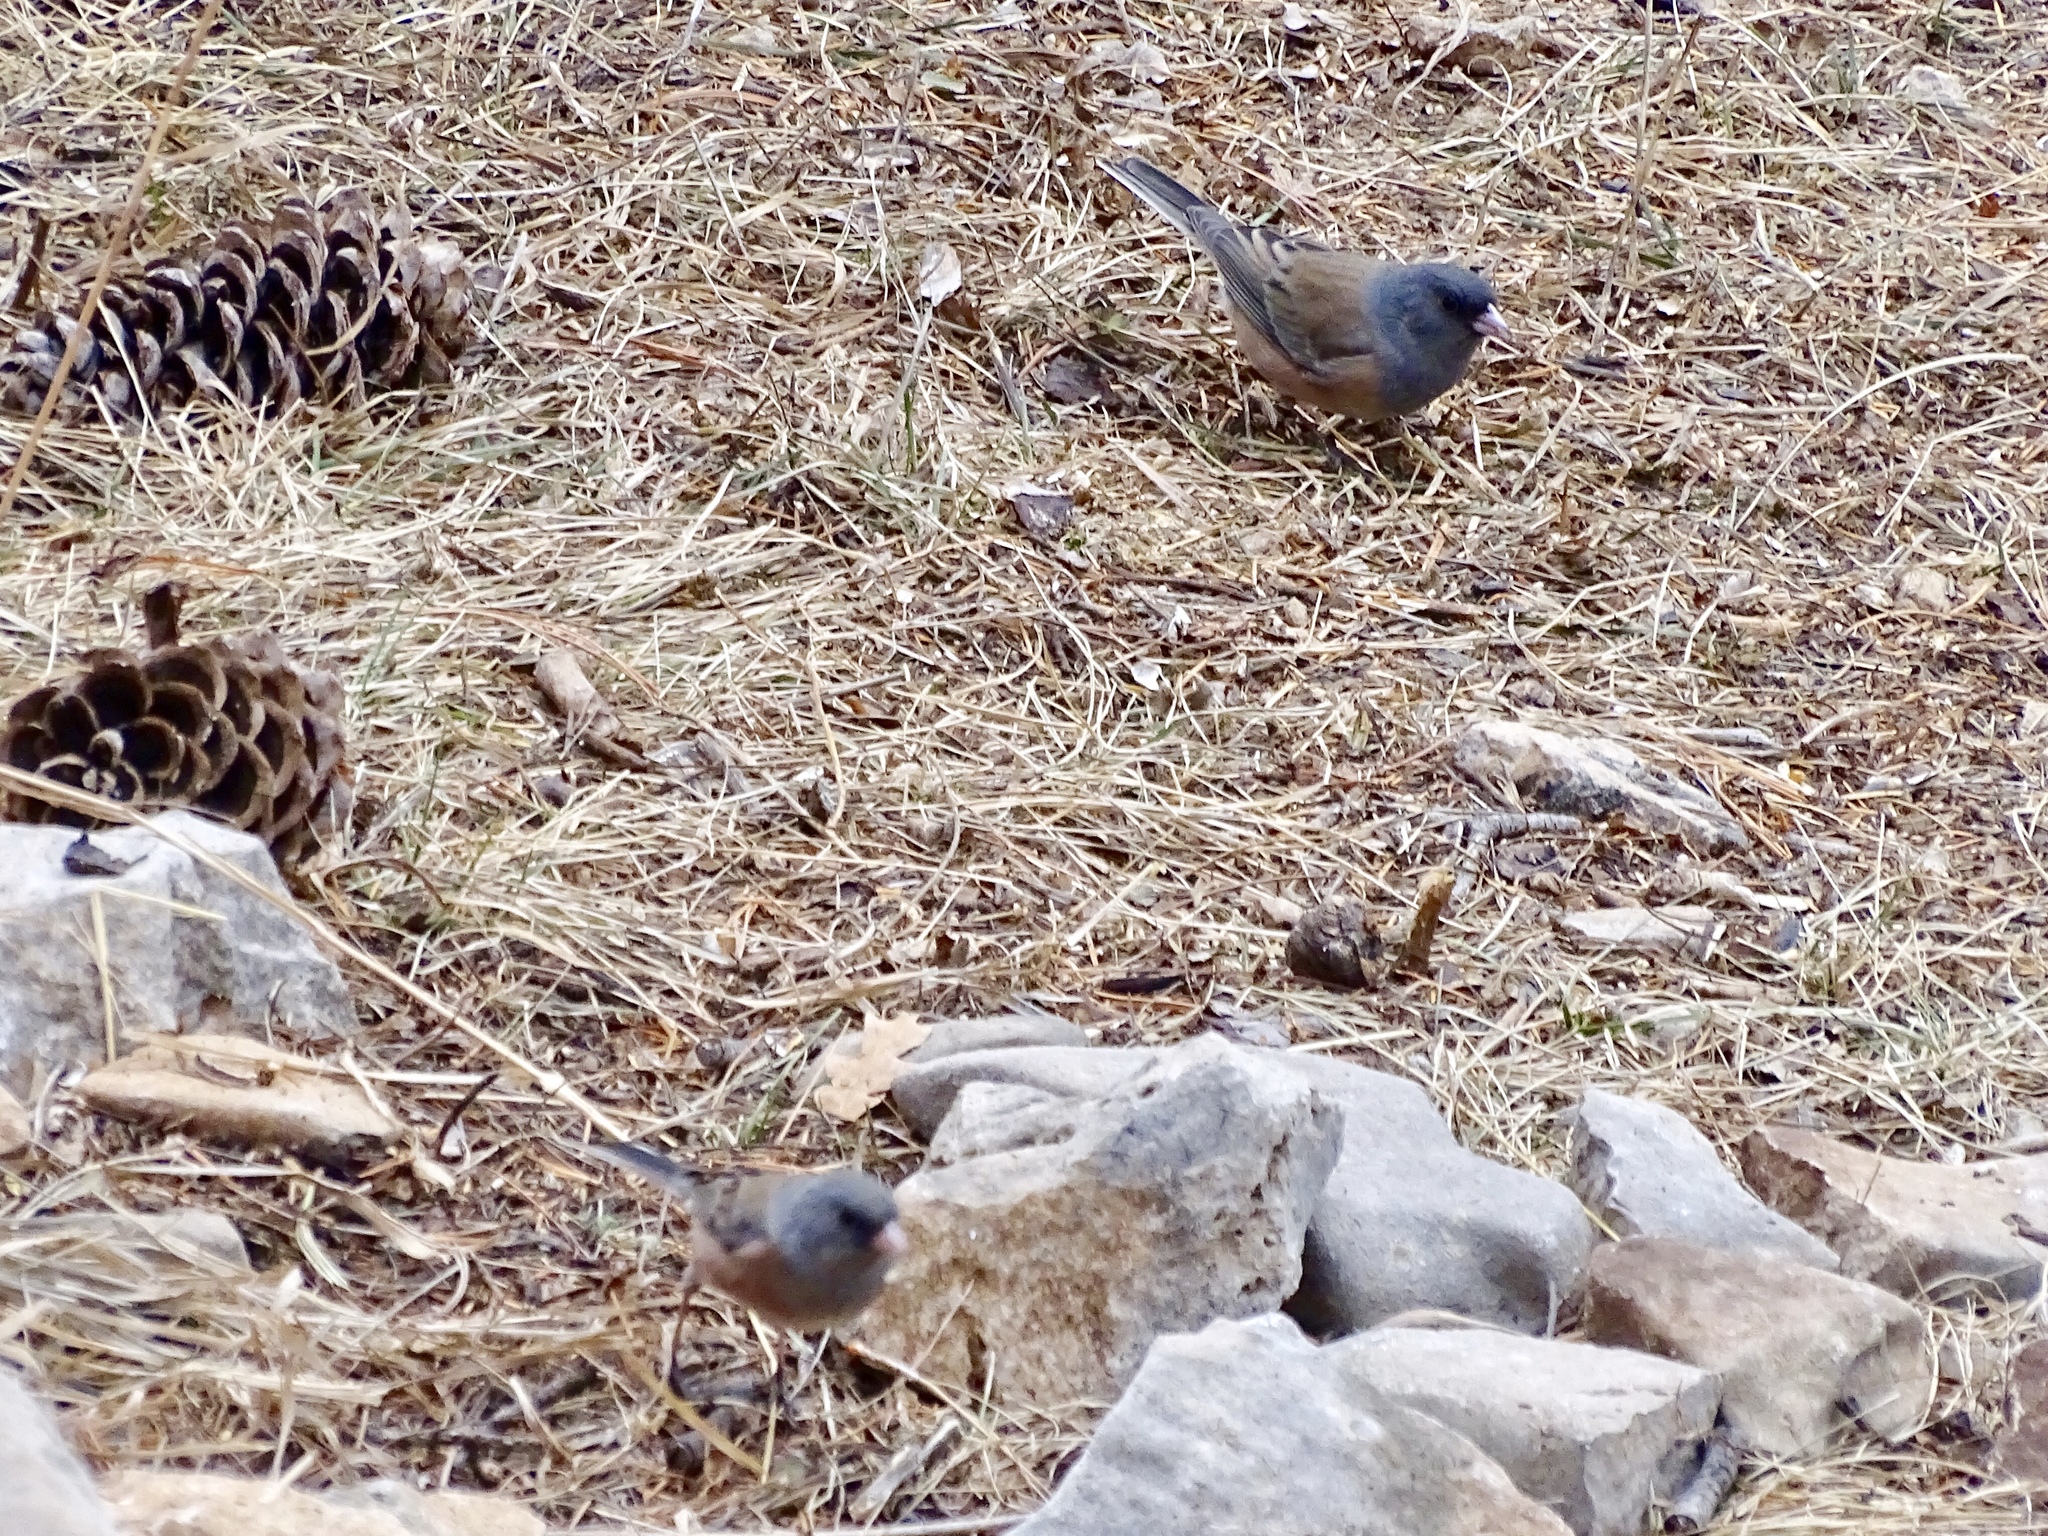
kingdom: Animalia
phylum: Chordata
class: Aves
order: Passeriformes
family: Passerellidae
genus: Junco
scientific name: Junco hyemalis
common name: Dark-eyed junco
